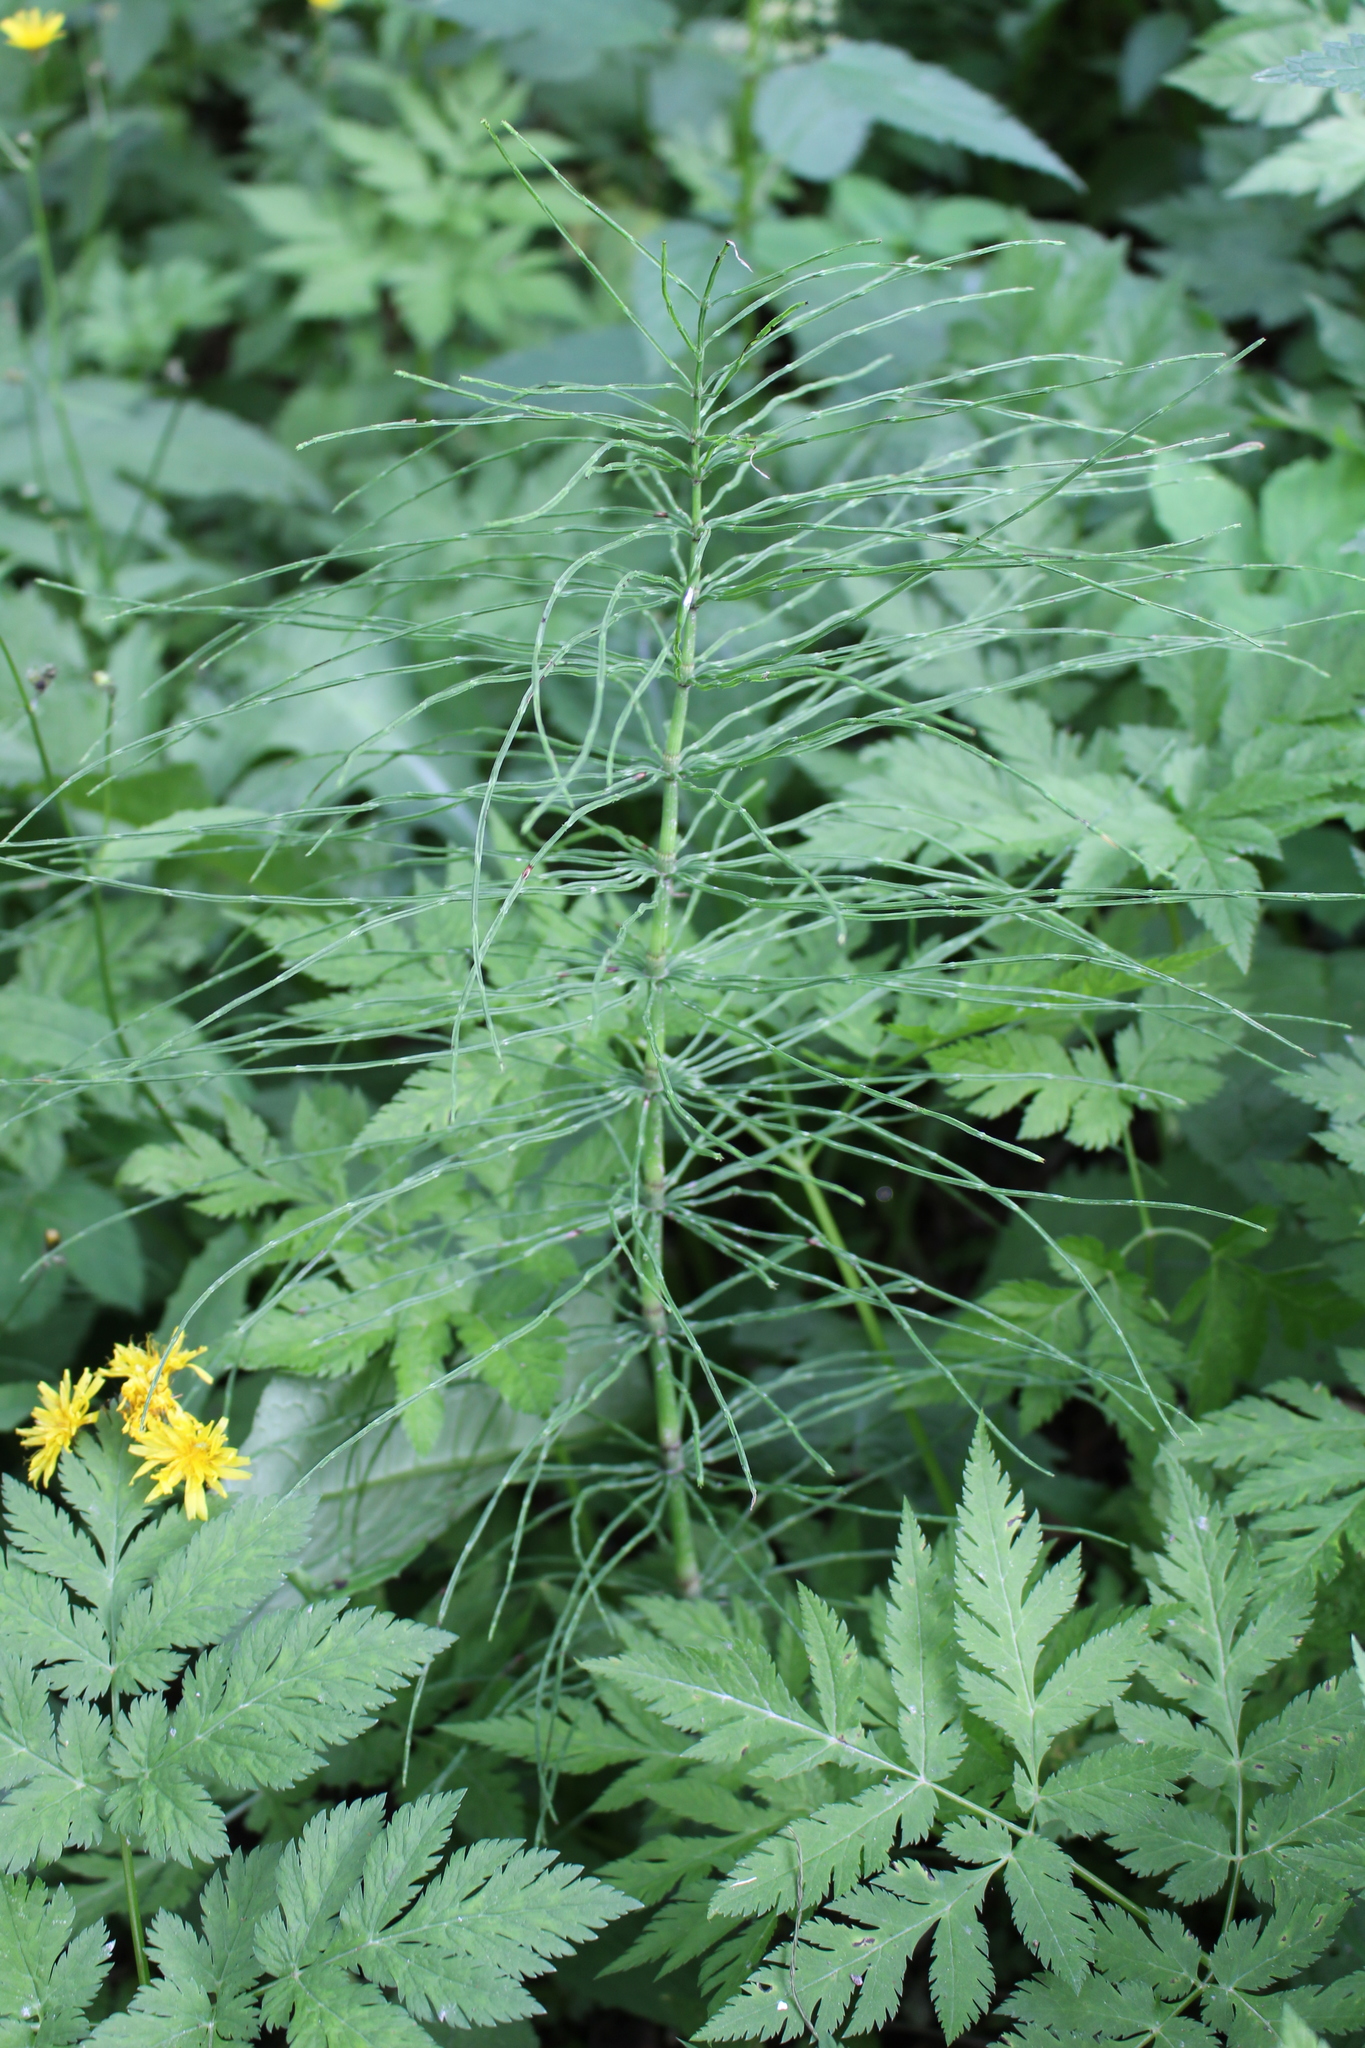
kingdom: Plantae
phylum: Tracheophyta
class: Polypodiopsida
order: Equisetales
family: Equisetaceae
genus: Equisetum
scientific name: Equisetum pratense
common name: Meadow horsetail
